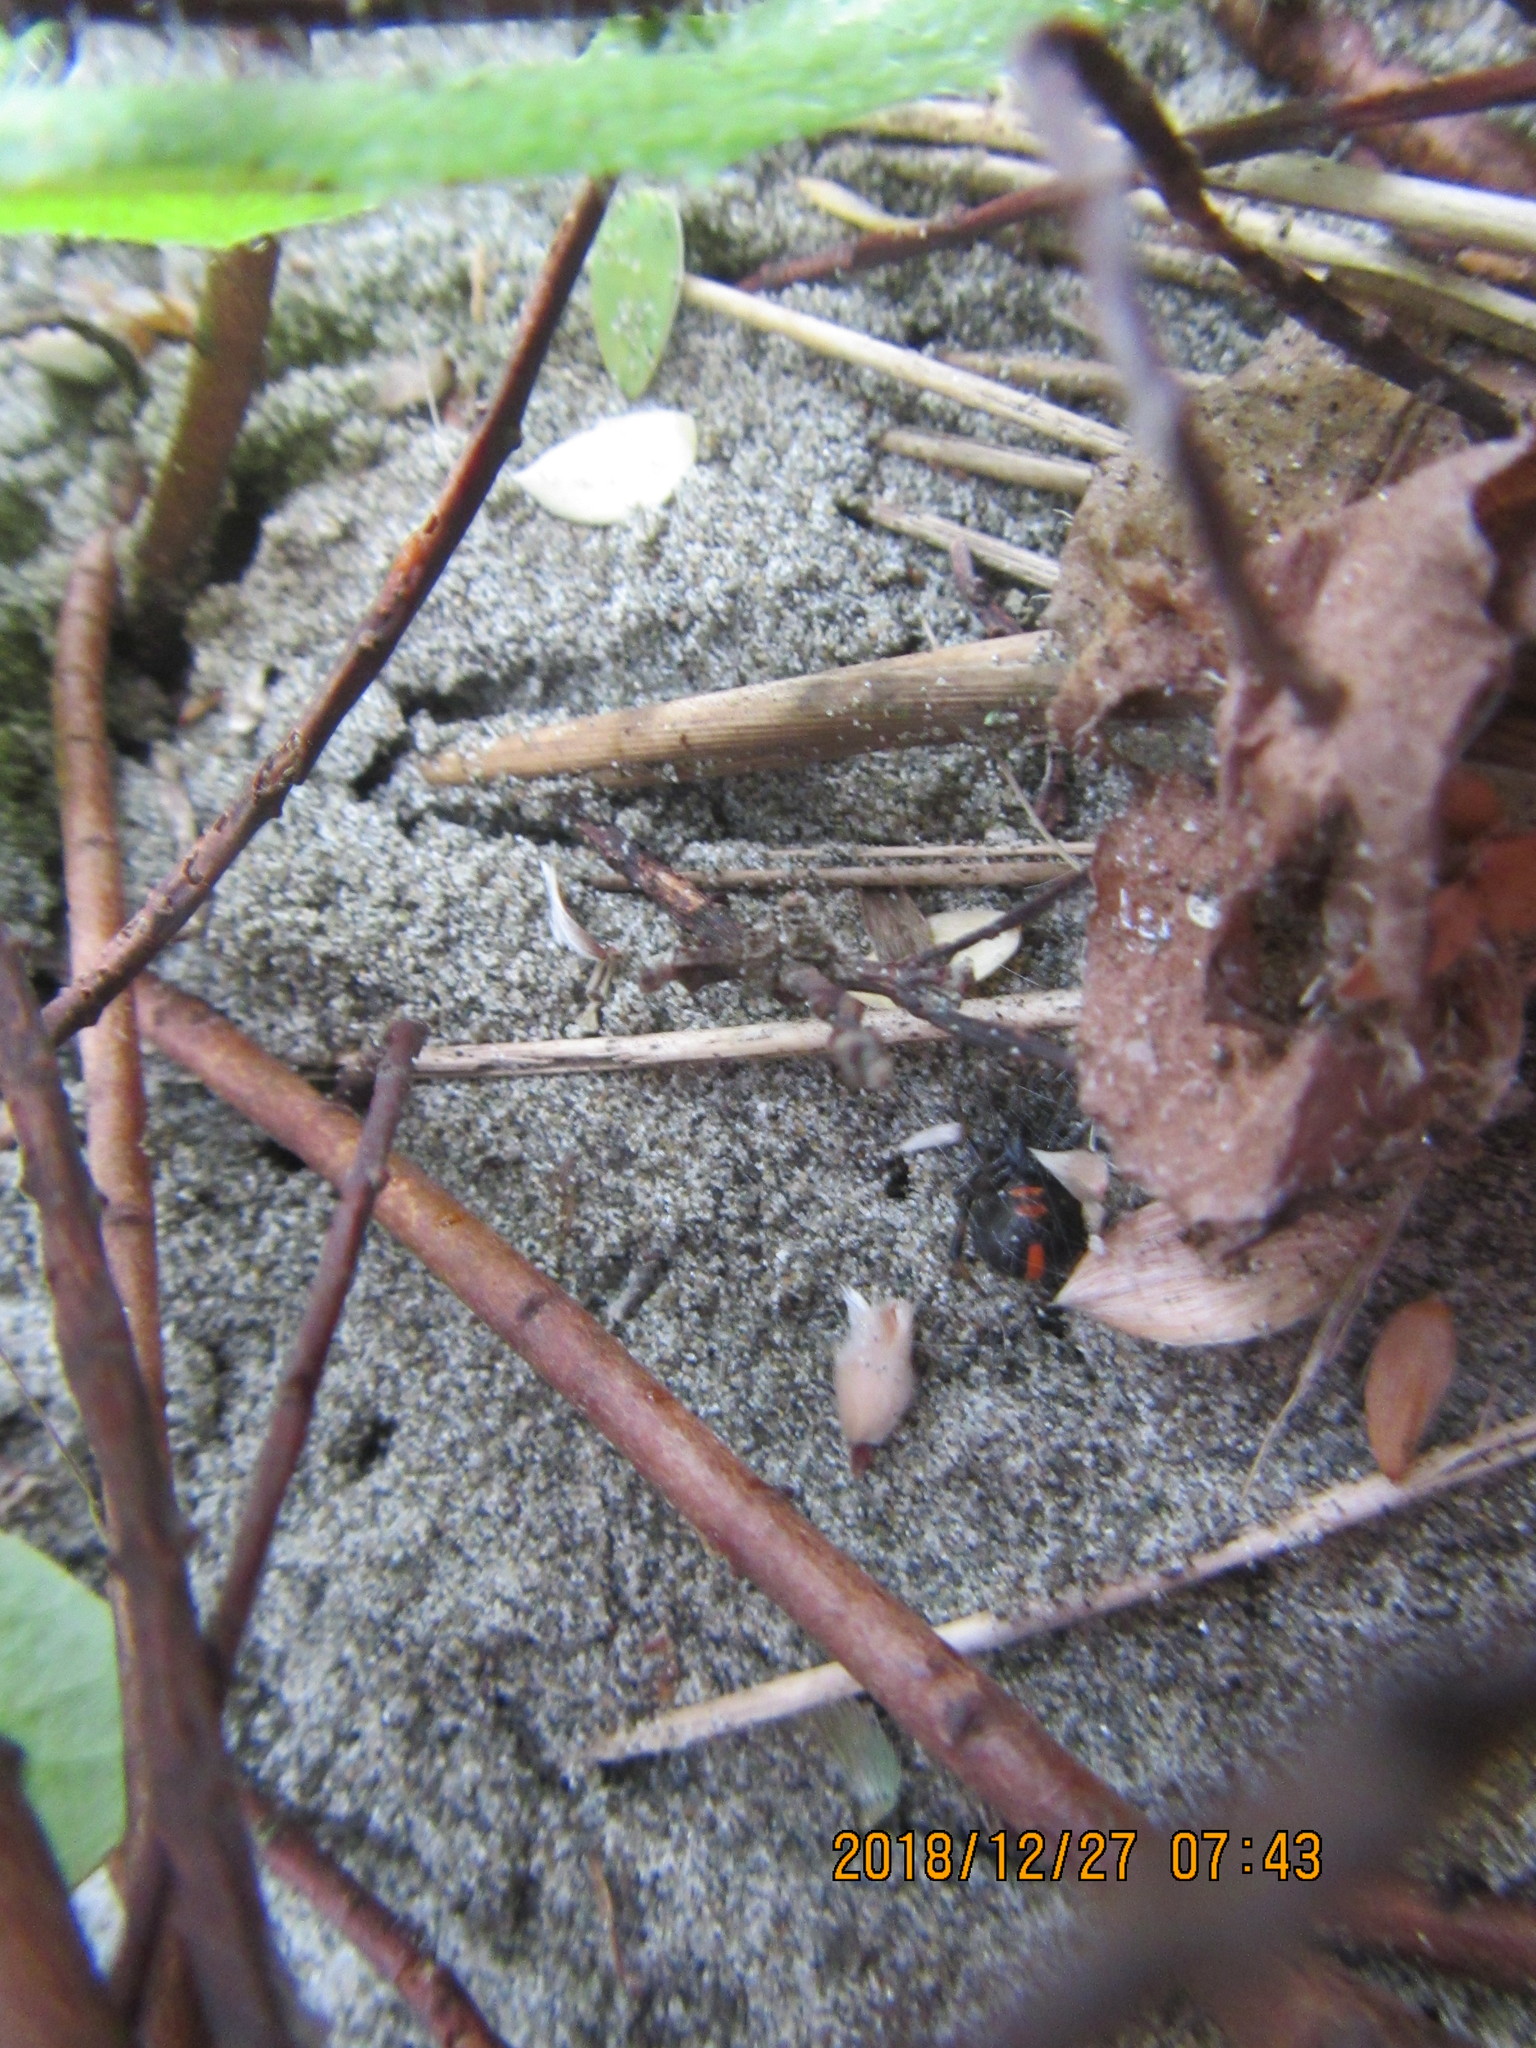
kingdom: Plantae
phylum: Tracheophyta
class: Magnoliopsida
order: Malvales
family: Thymelaeaceae
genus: Pimelea
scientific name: Pimelea villosa
